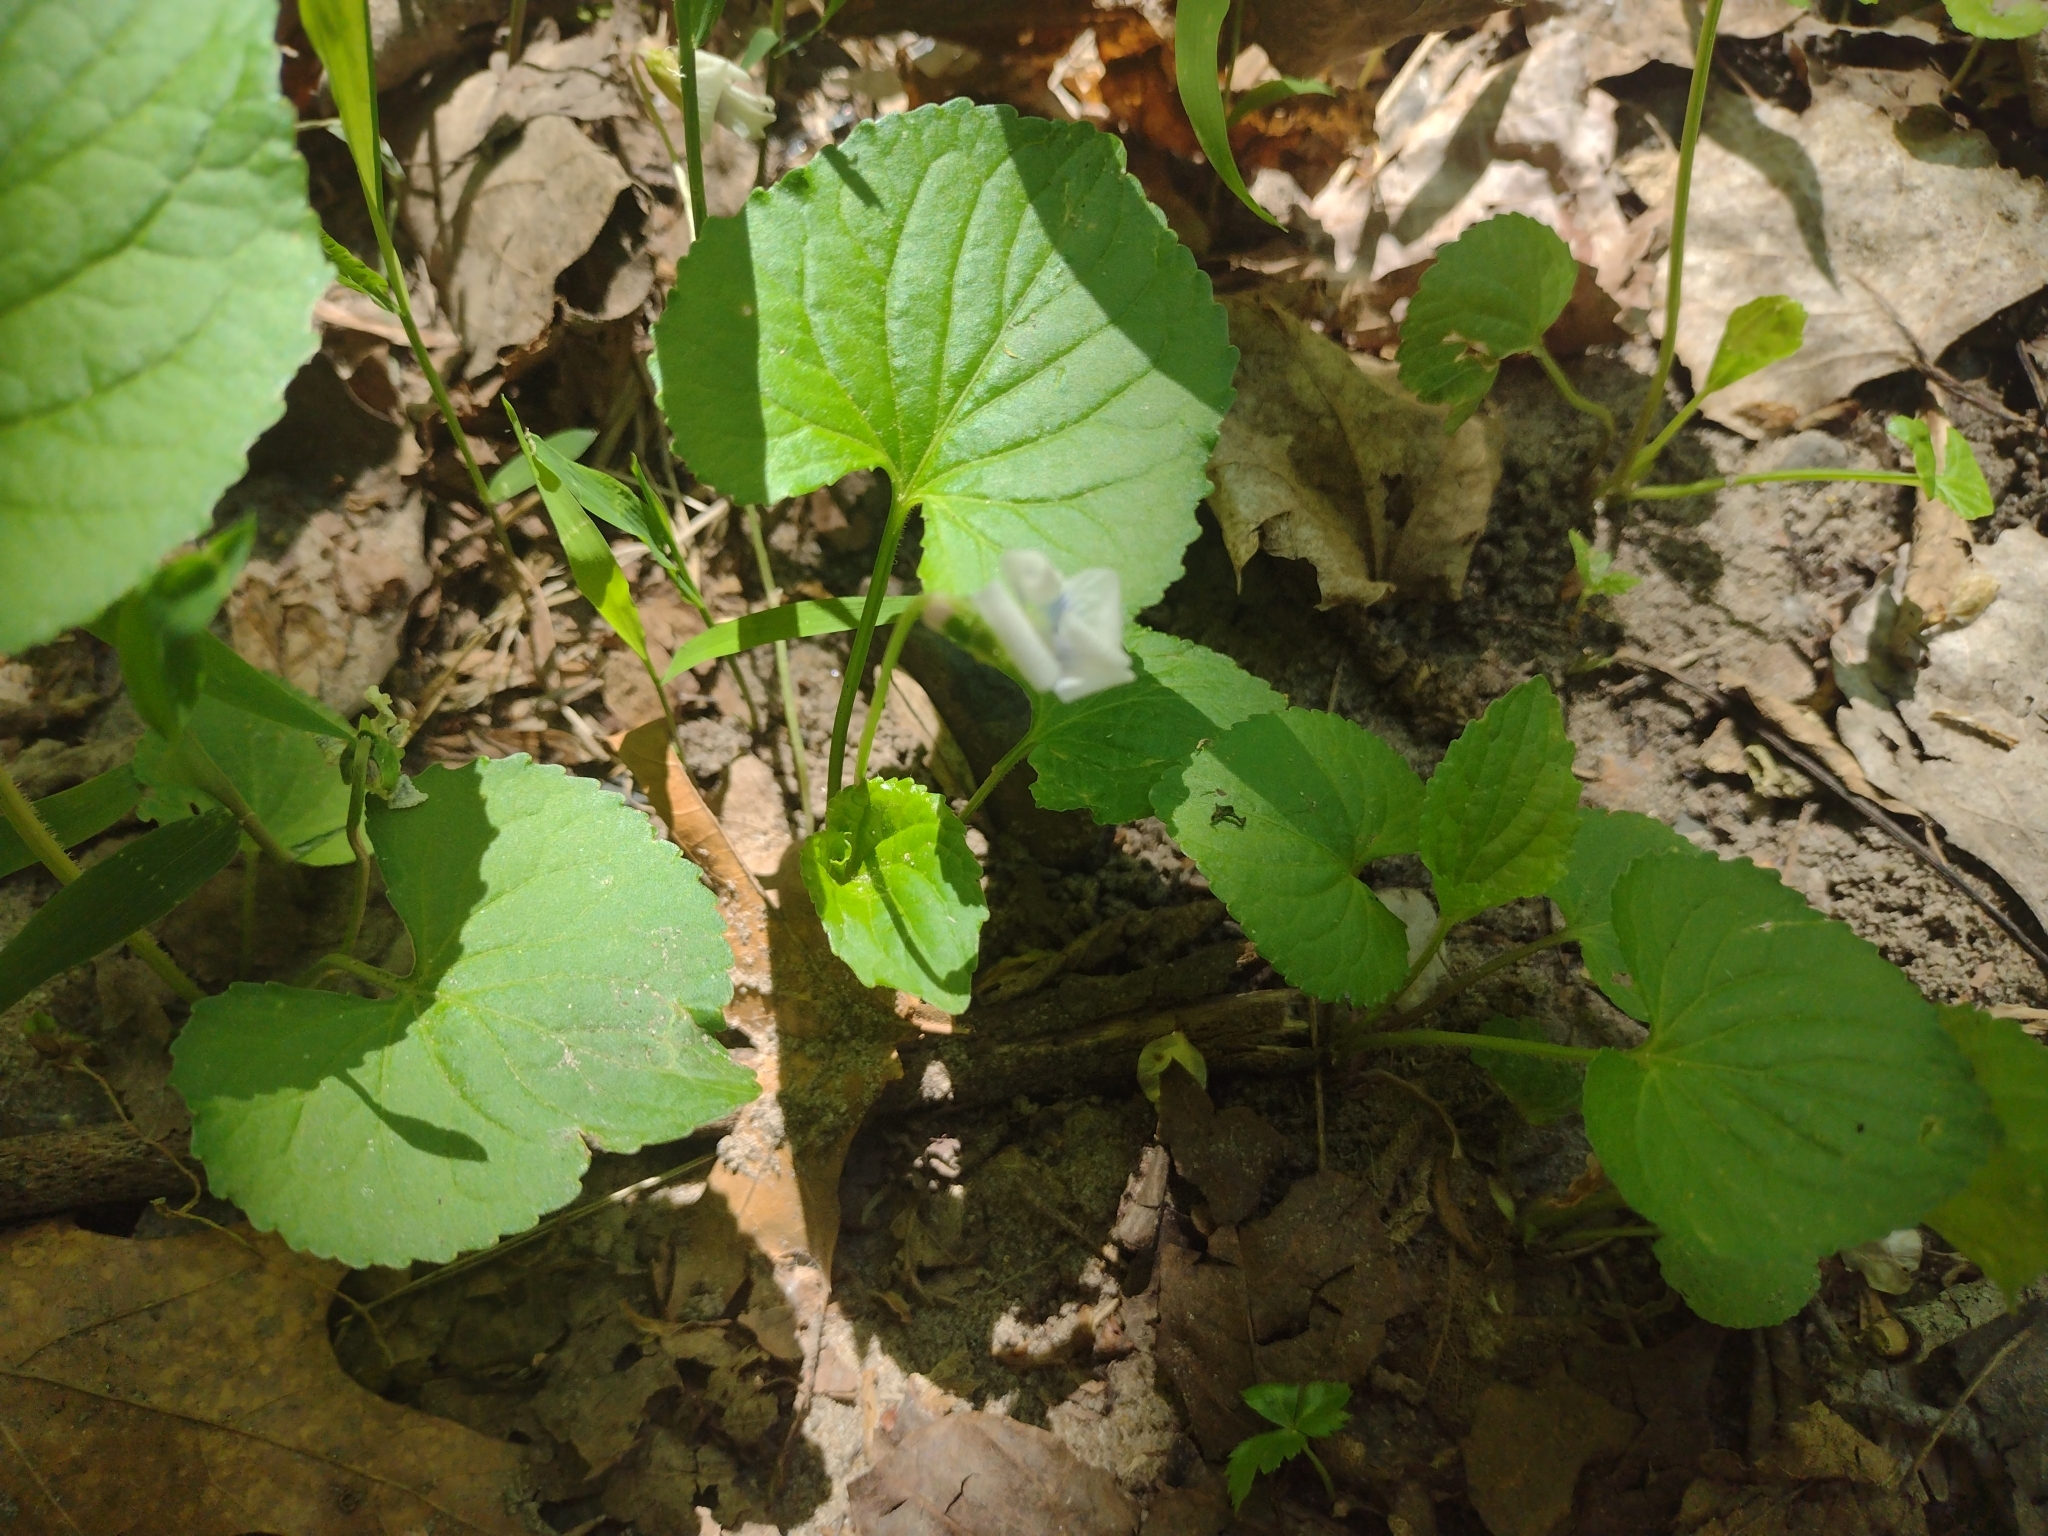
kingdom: Plantae
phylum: Tracheophyta
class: Magnoliopsida
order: Malpighiales
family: Violaceae
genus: Viola
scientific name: Viola sororia
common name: Dooryard violet
